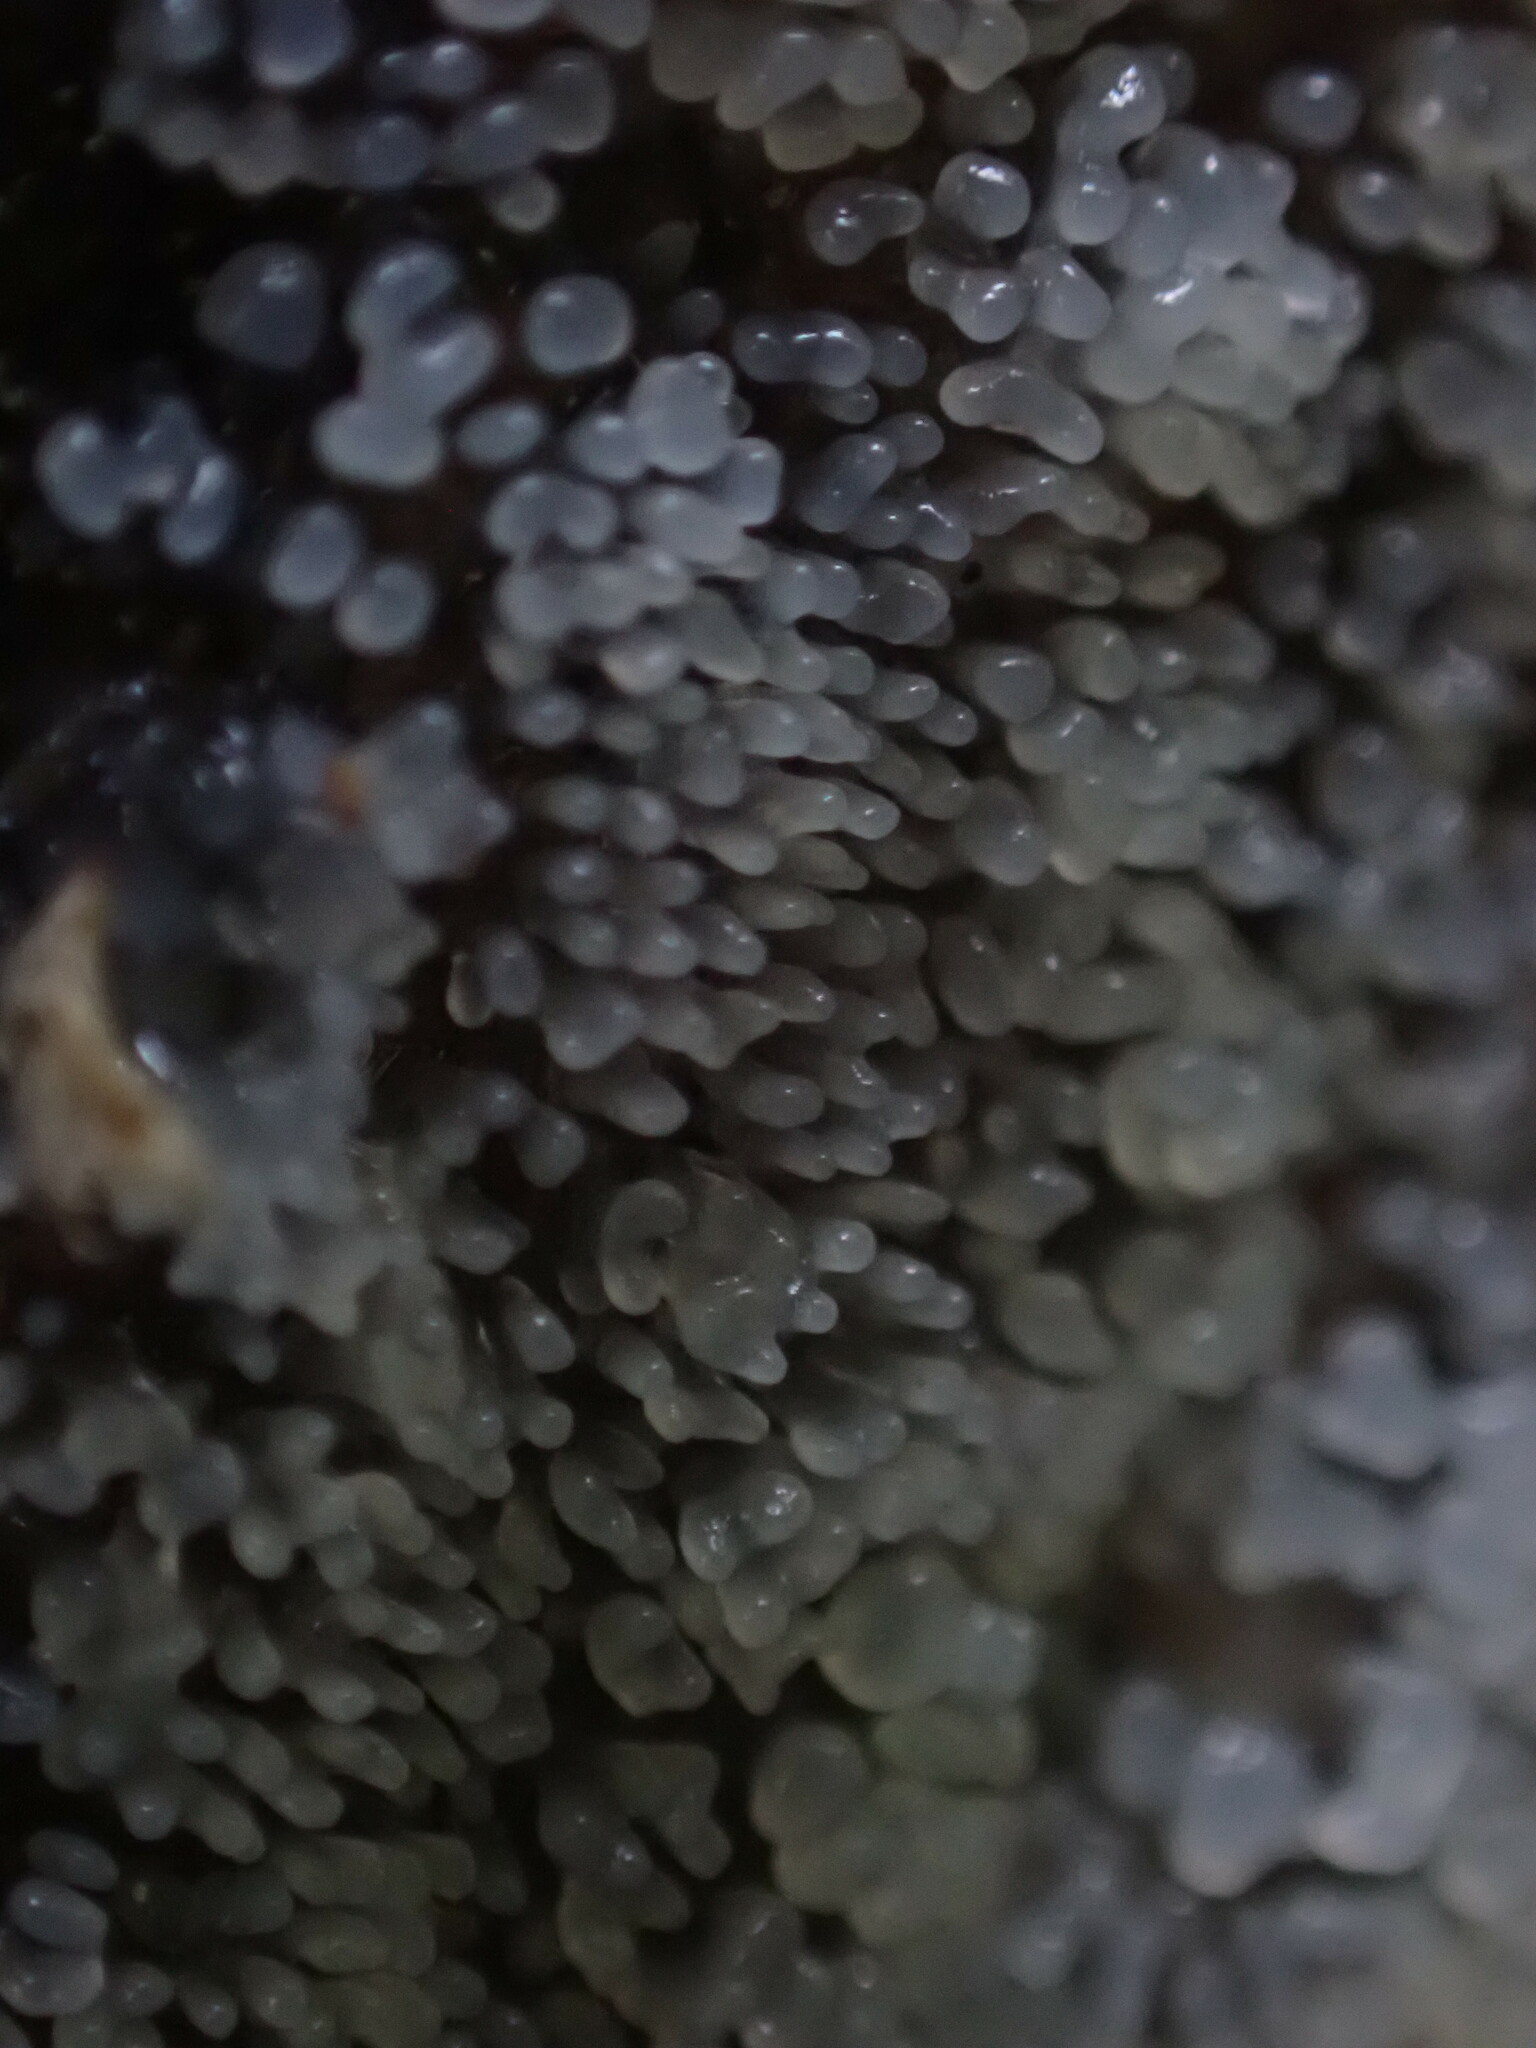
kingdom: Protozoa
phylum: Mycetozoa
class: Protosteliomycetes
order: Ceratiomyxales
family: Ceratiomyxaceae
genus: Ceratiomyxa
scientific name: Ceratiomyxa fruticulosa
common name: Honeycomb coral slime mold
